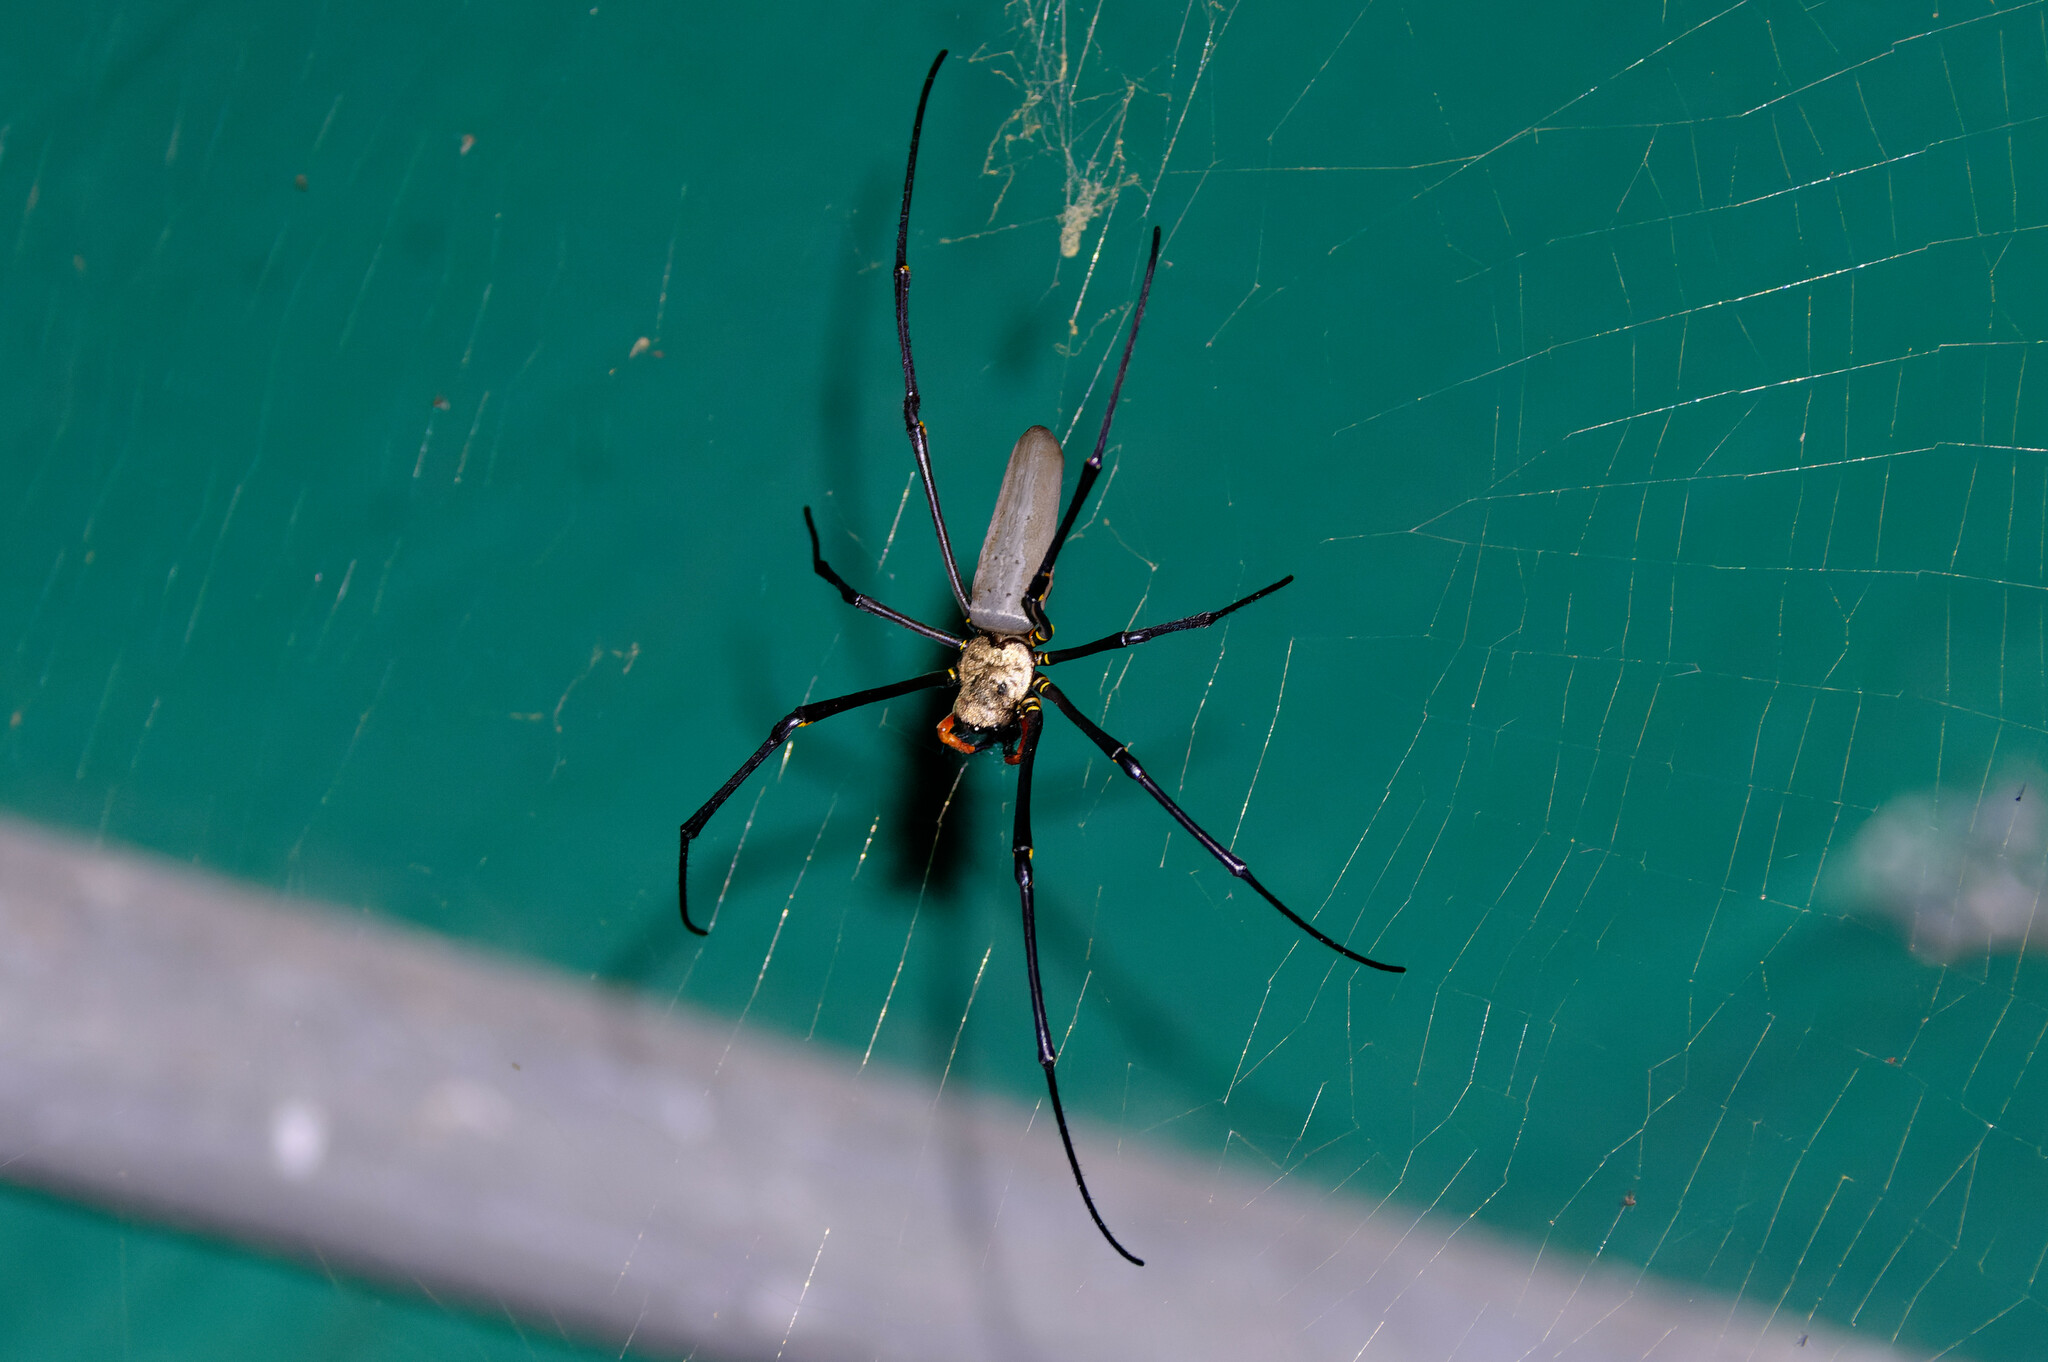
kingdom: Animalia
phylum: Arthropoda
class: Arachnida
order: Araneae
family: Araneidae
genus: Nephila
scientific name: Nephila pilipes
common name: Giant golden orb weaver
